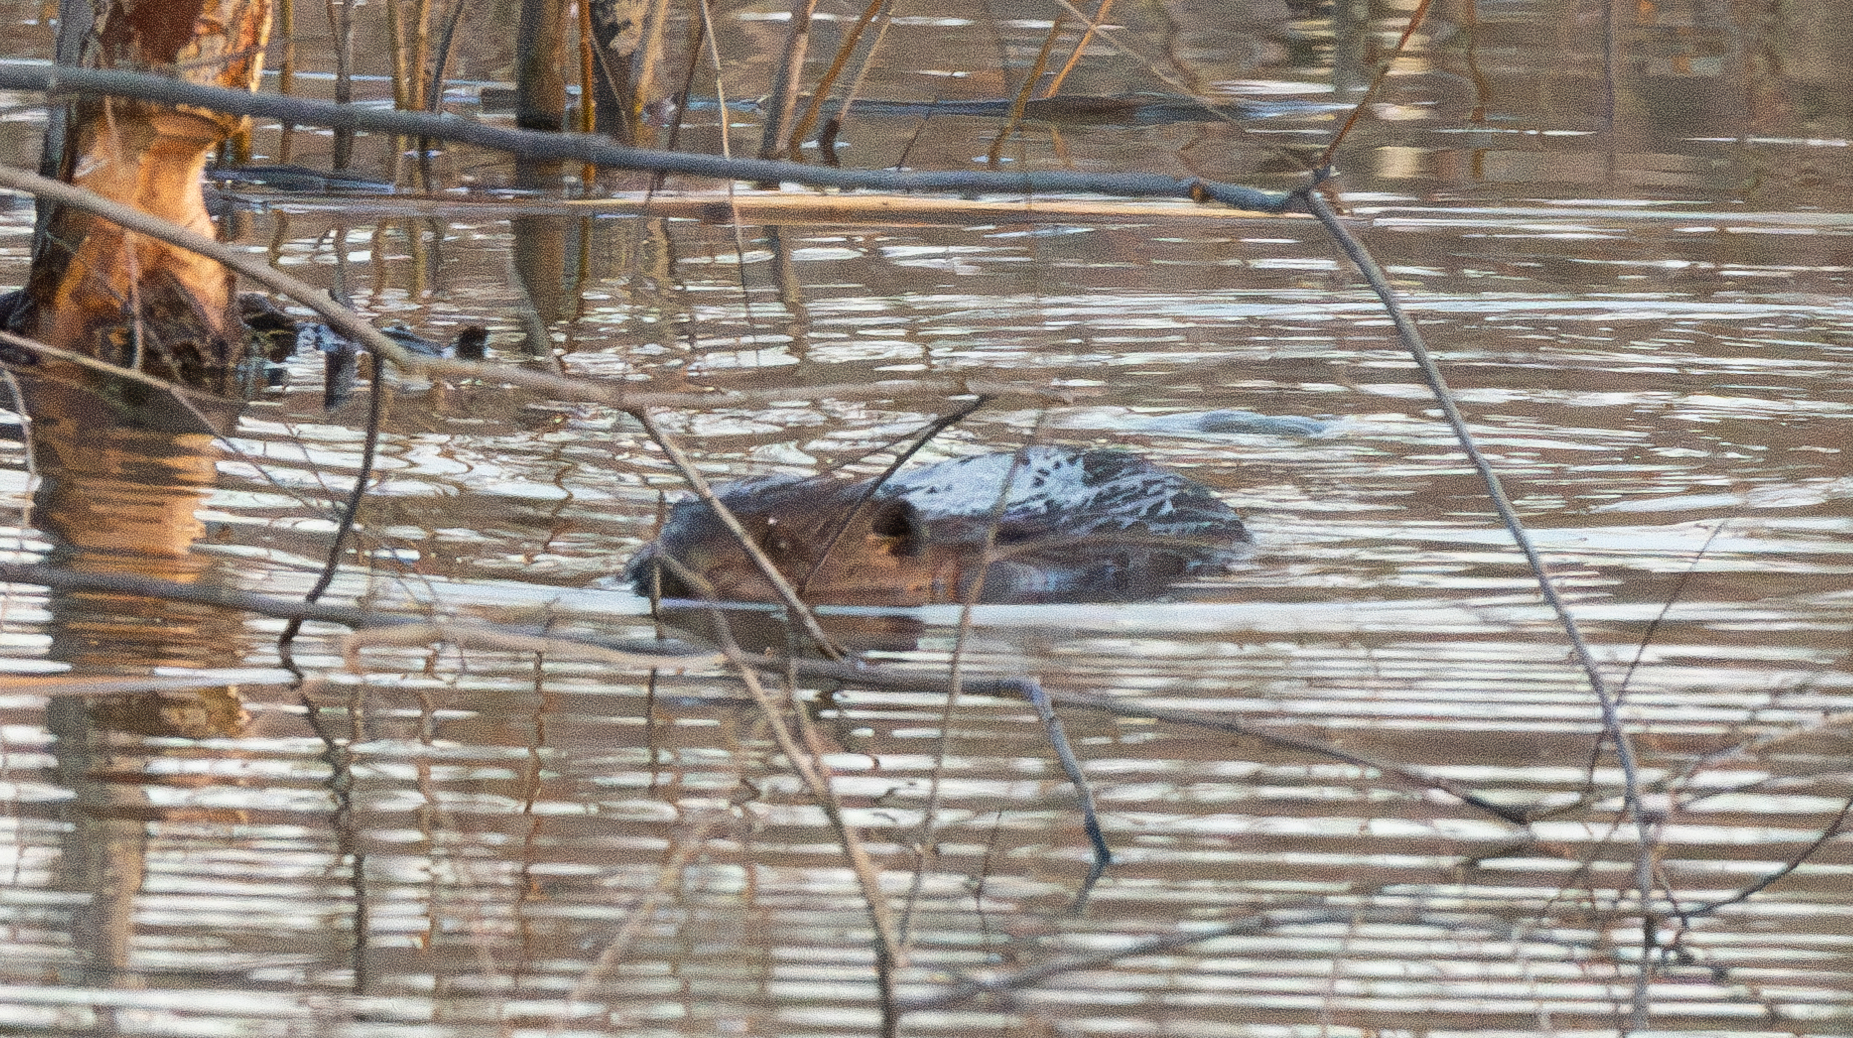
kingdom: Animalia
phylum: Chordata
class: Mammalia
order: Rodentia
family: Castoridae
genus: Castor
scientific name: Castor canadensis
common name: American beaver
